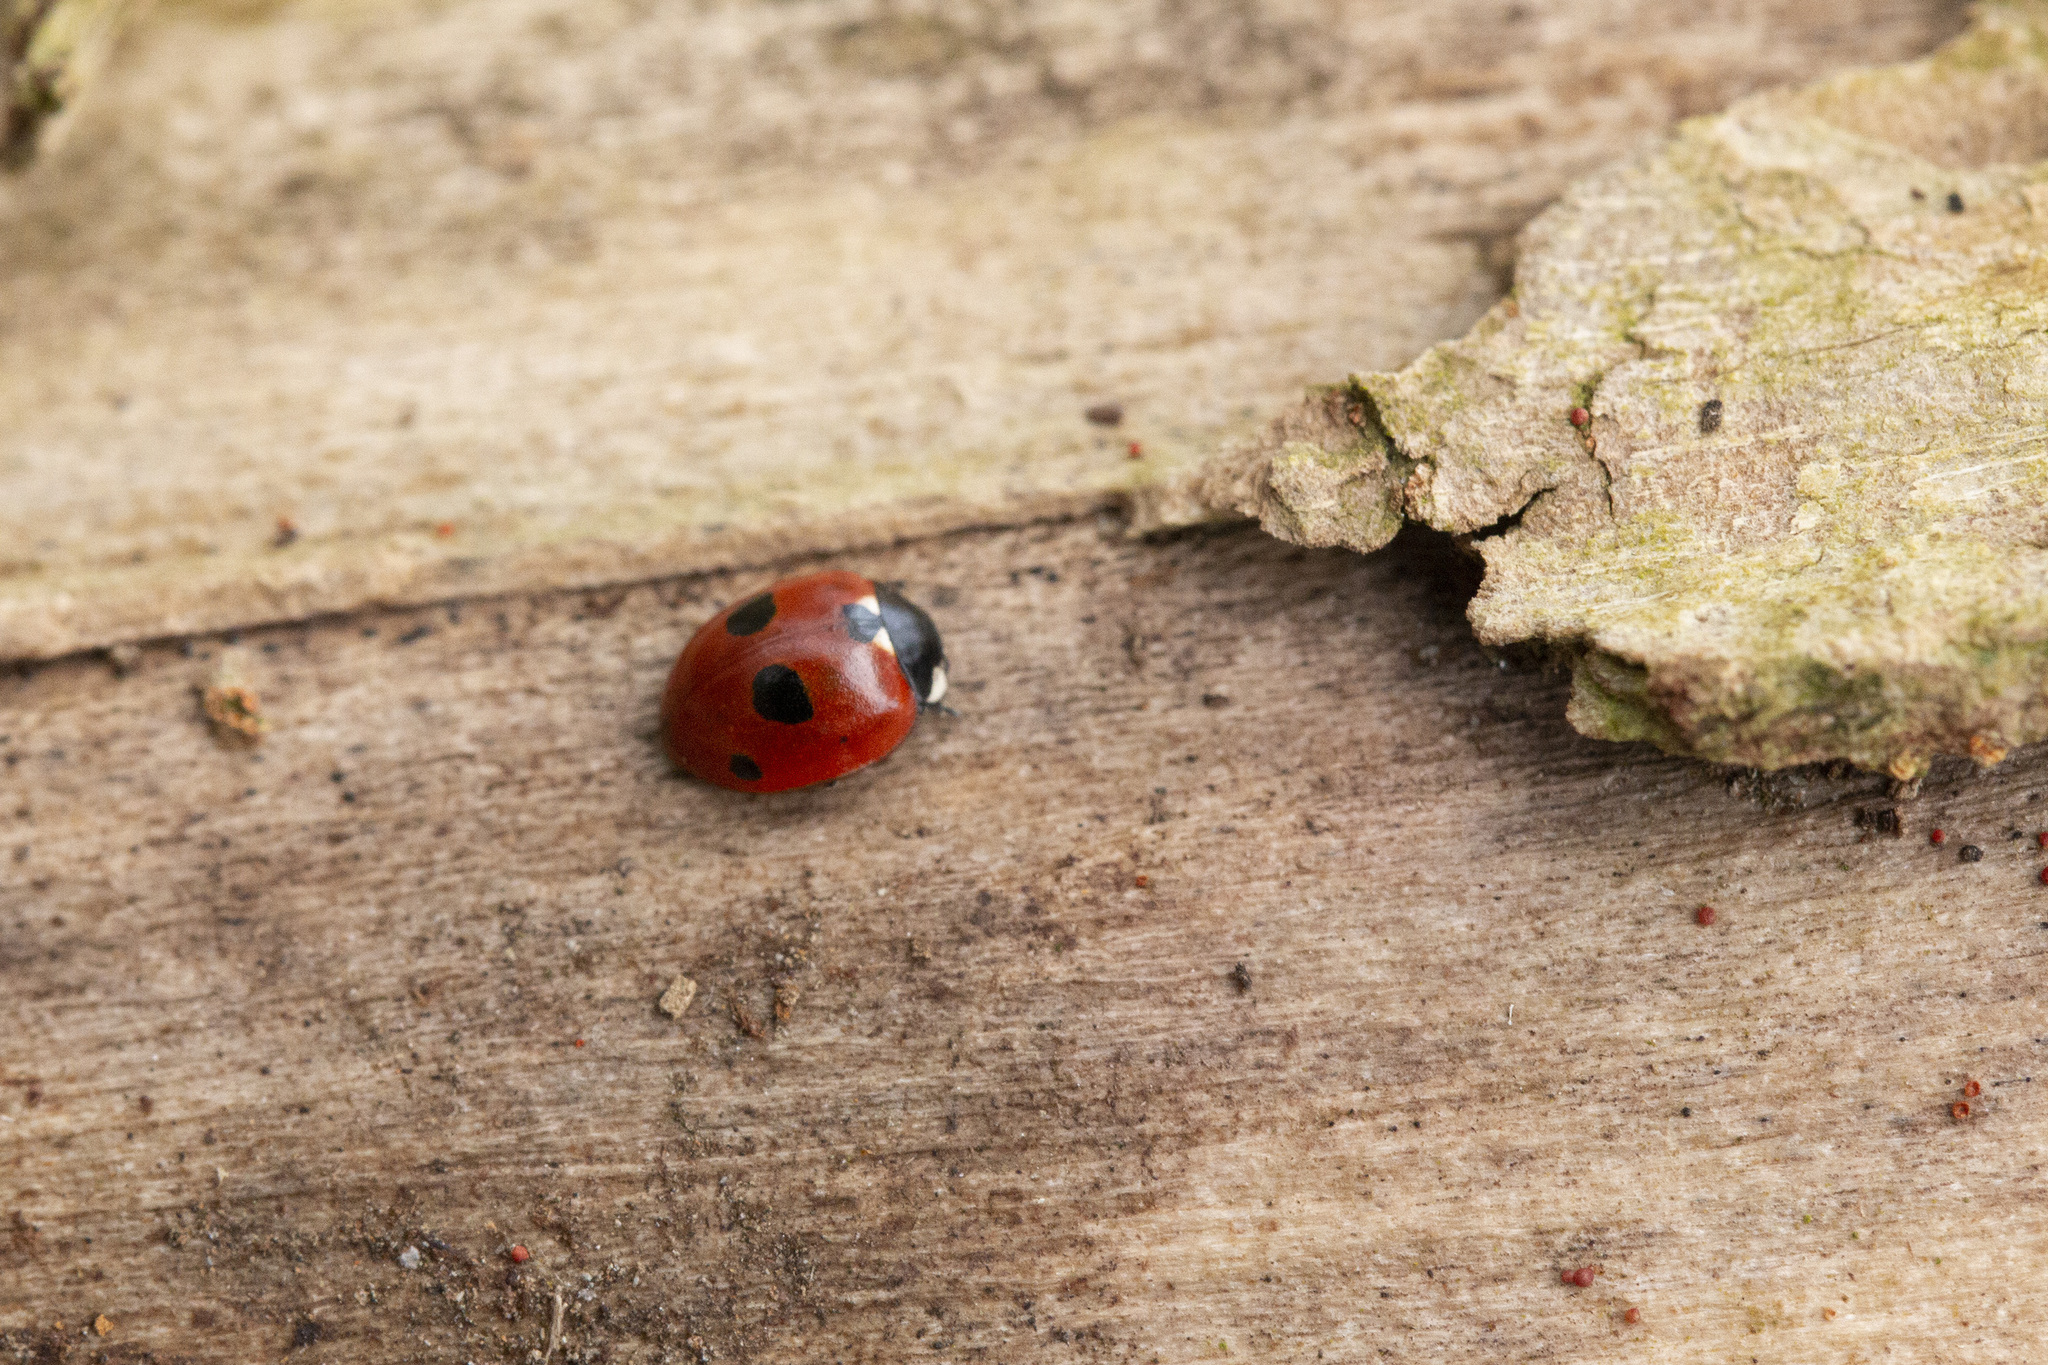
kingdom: Animalia
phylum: Arthropoda
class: Insecta
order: Coleoptera
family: Coccinellidae
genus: Coccinella
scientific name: Coccinella quinquepunctata
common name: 5-spot ladybird
